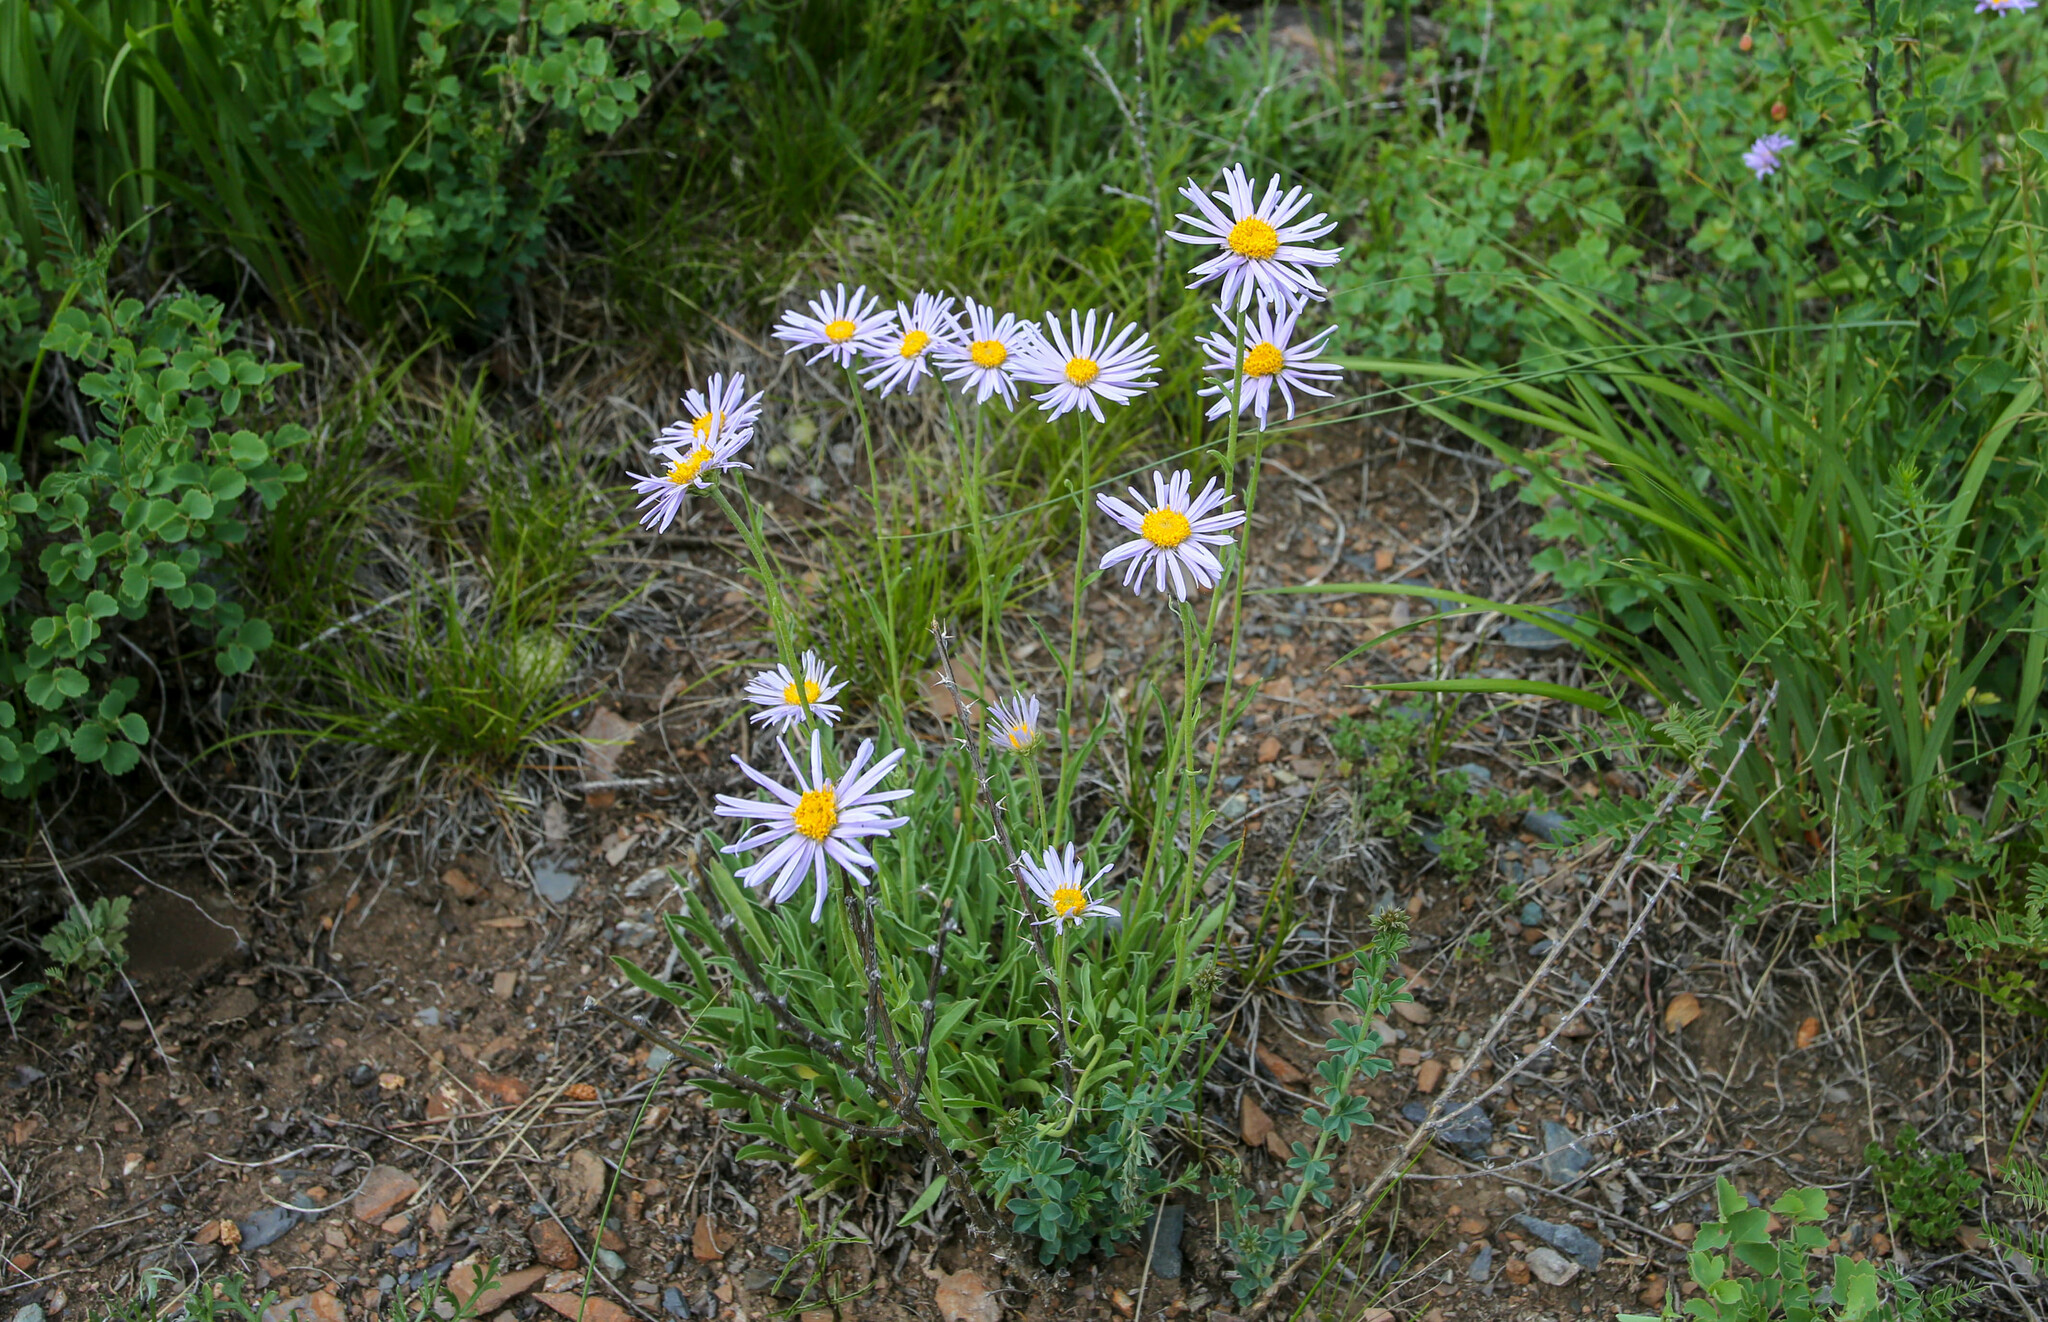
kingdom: Plantae
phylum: Tracheophyta
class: Magnoliopsida
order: Asterales
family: Asteraceae
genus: Aster
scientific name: Aster alpinus
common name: Alpine aster
